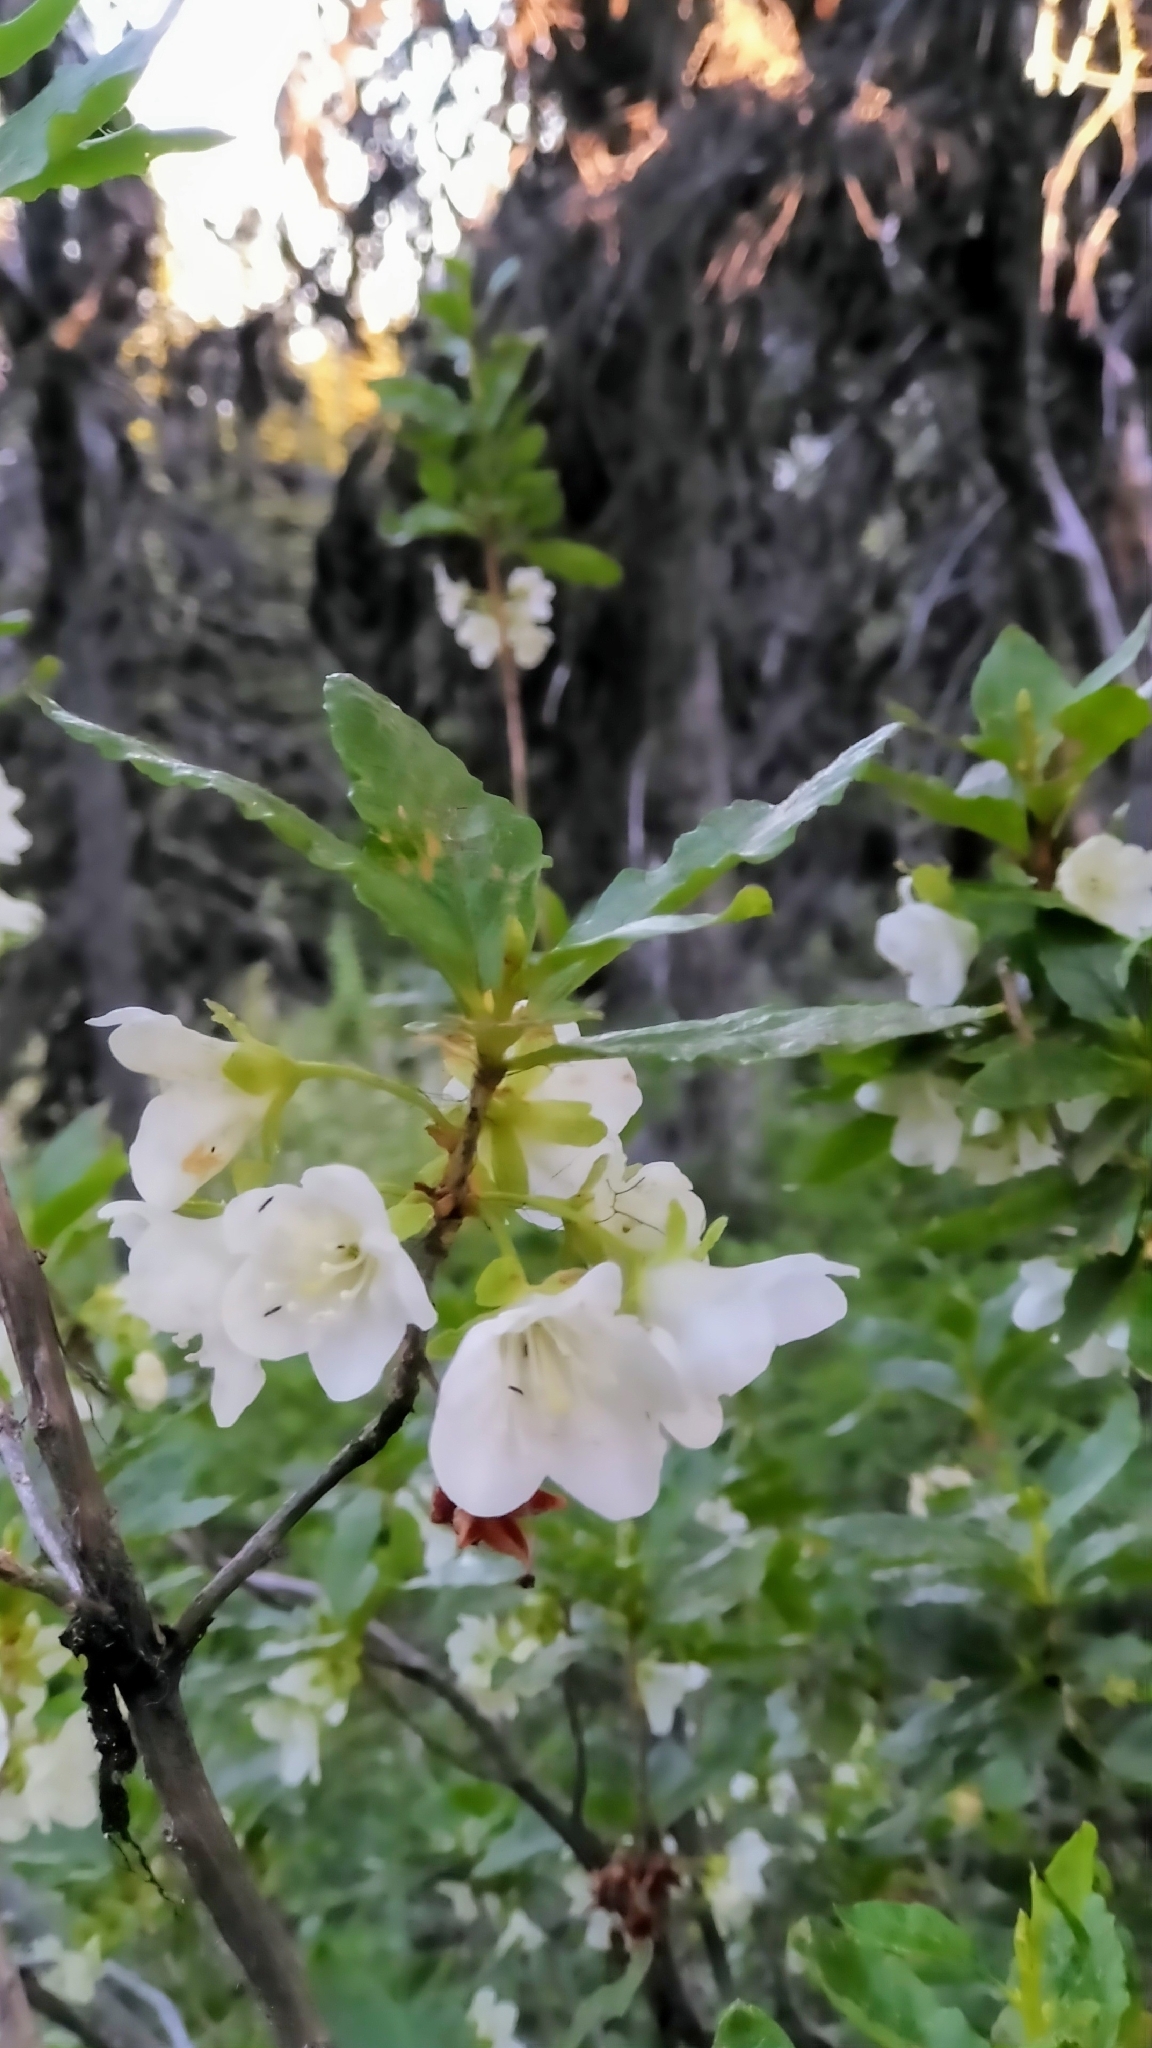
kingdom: Plantae
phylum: Tracheophyta
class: Magnoliopsida
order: Ericales
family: Ericaceae
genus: Rhododendron
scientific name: Rhododendron albiflorum
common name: White rhododendron
